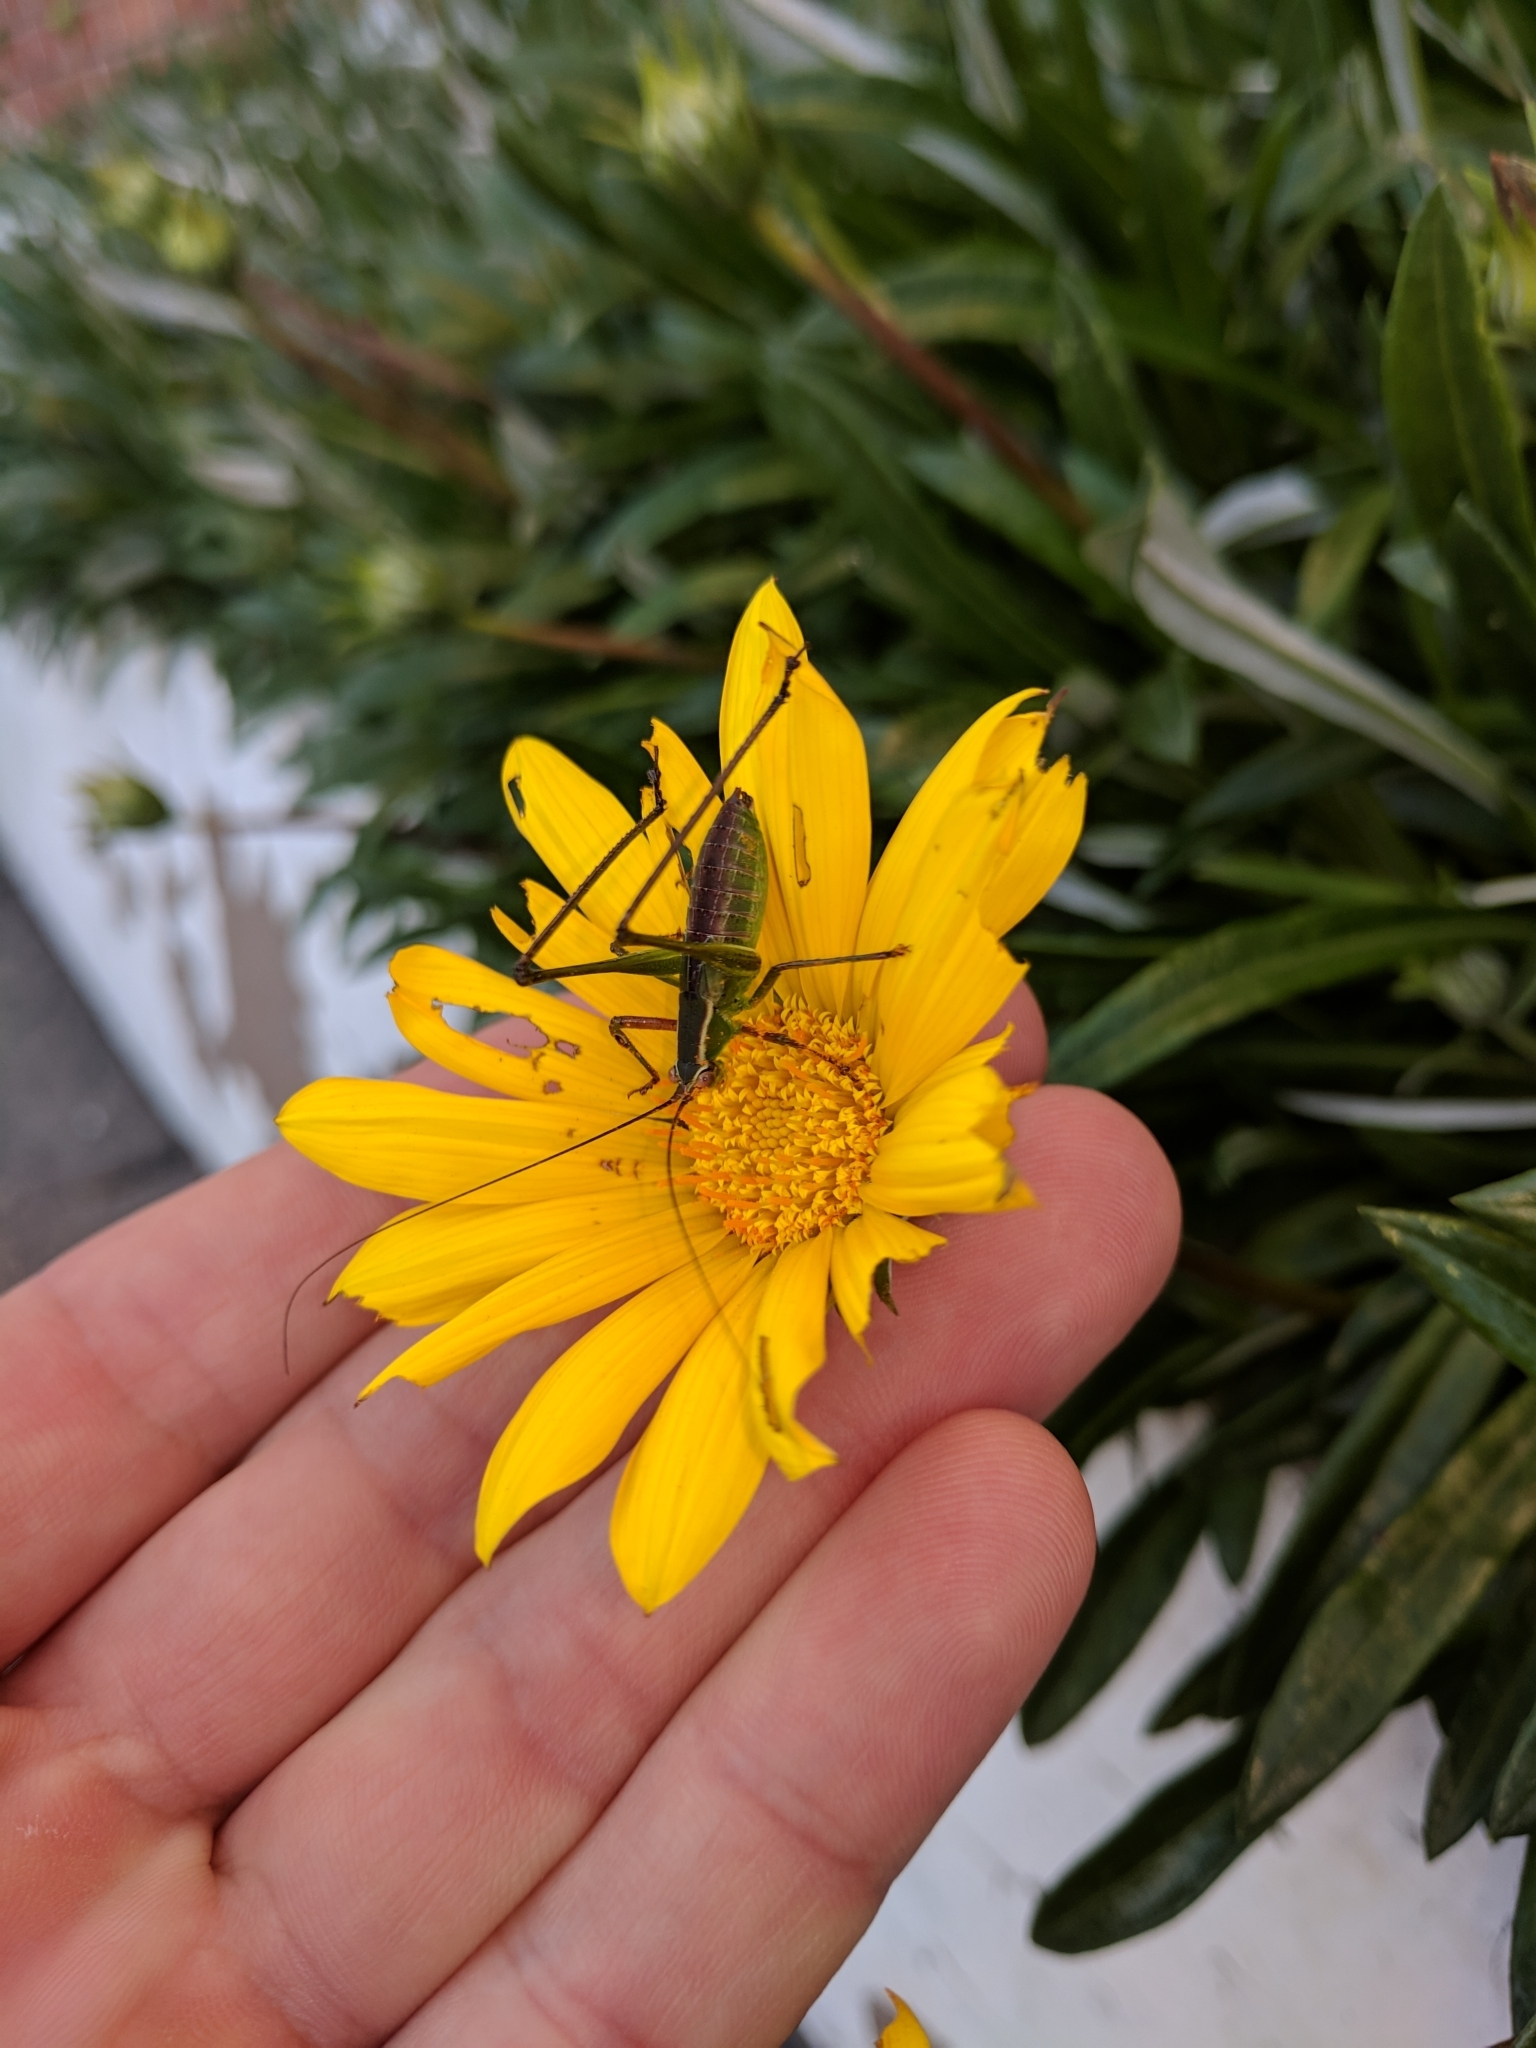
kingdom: Animalia
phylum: Arthropoda
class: Insecta
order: Orthoptera
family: Tettigoniidae
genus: Scudderia
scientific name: Scudderia
